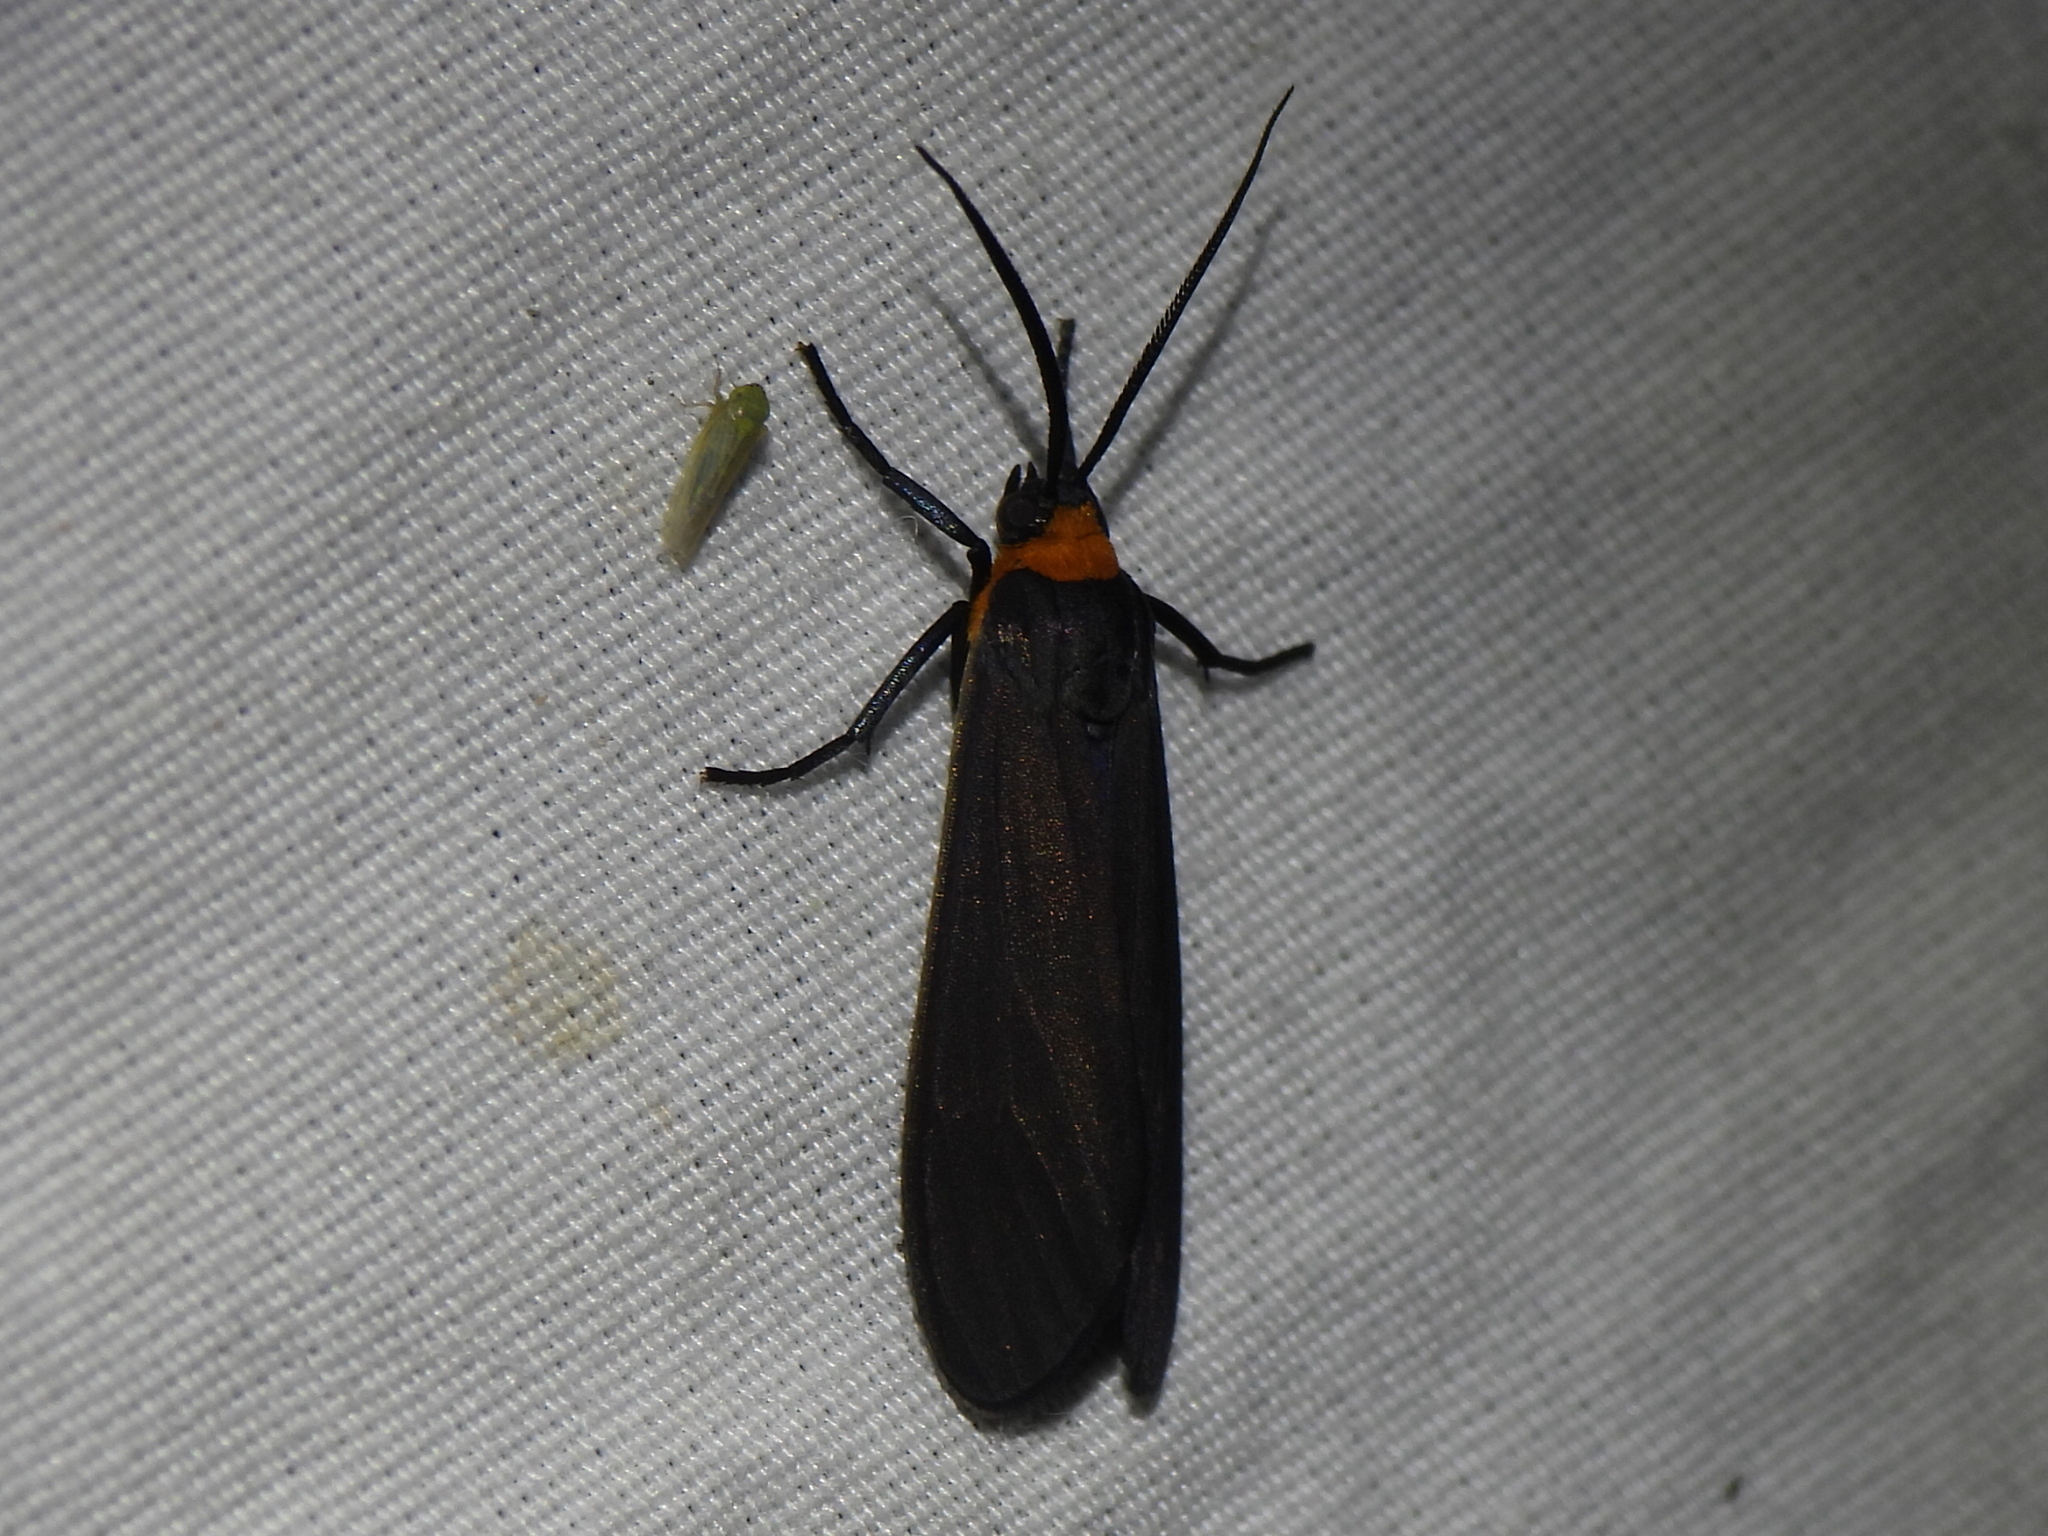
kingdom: Animalia
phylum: Arthropoda
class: Insecta
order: Lepidoptera
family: Erebidae
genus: Cisseps
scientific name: Cisseps fulvicollis
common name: Yellow-collared scape moth
